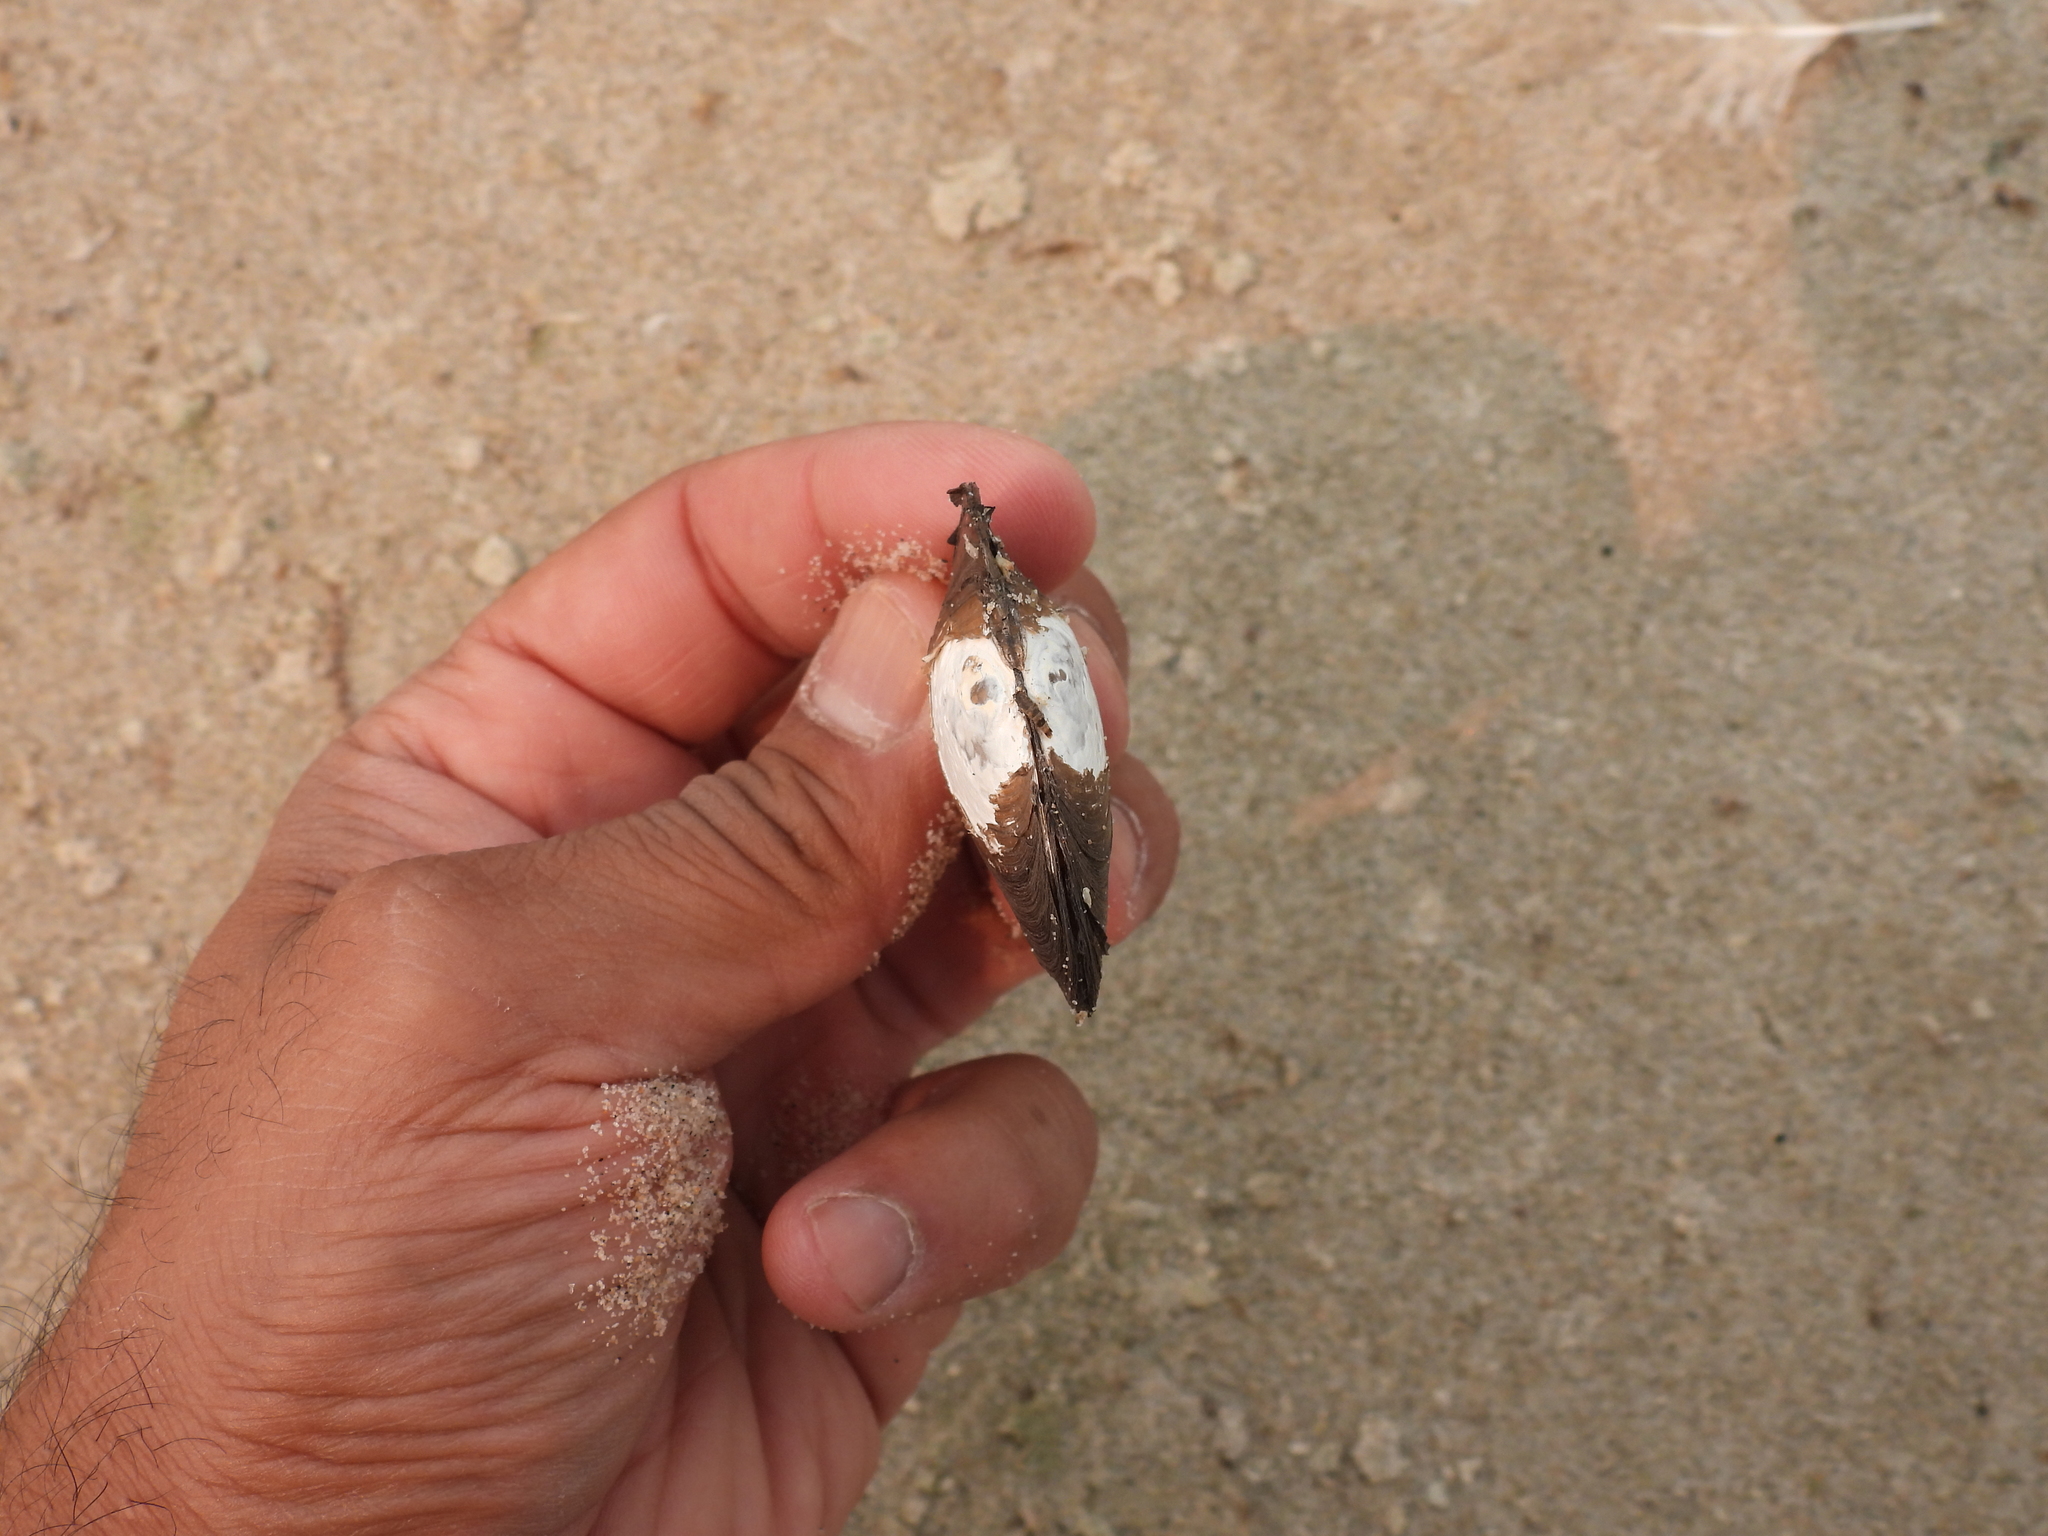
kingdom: Animalia
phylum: Mollusca
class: Bivalvia
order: Unionida
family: Unionidae
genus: Lasmigona
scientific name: Lasmigona complanata
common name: White heelsplitter
